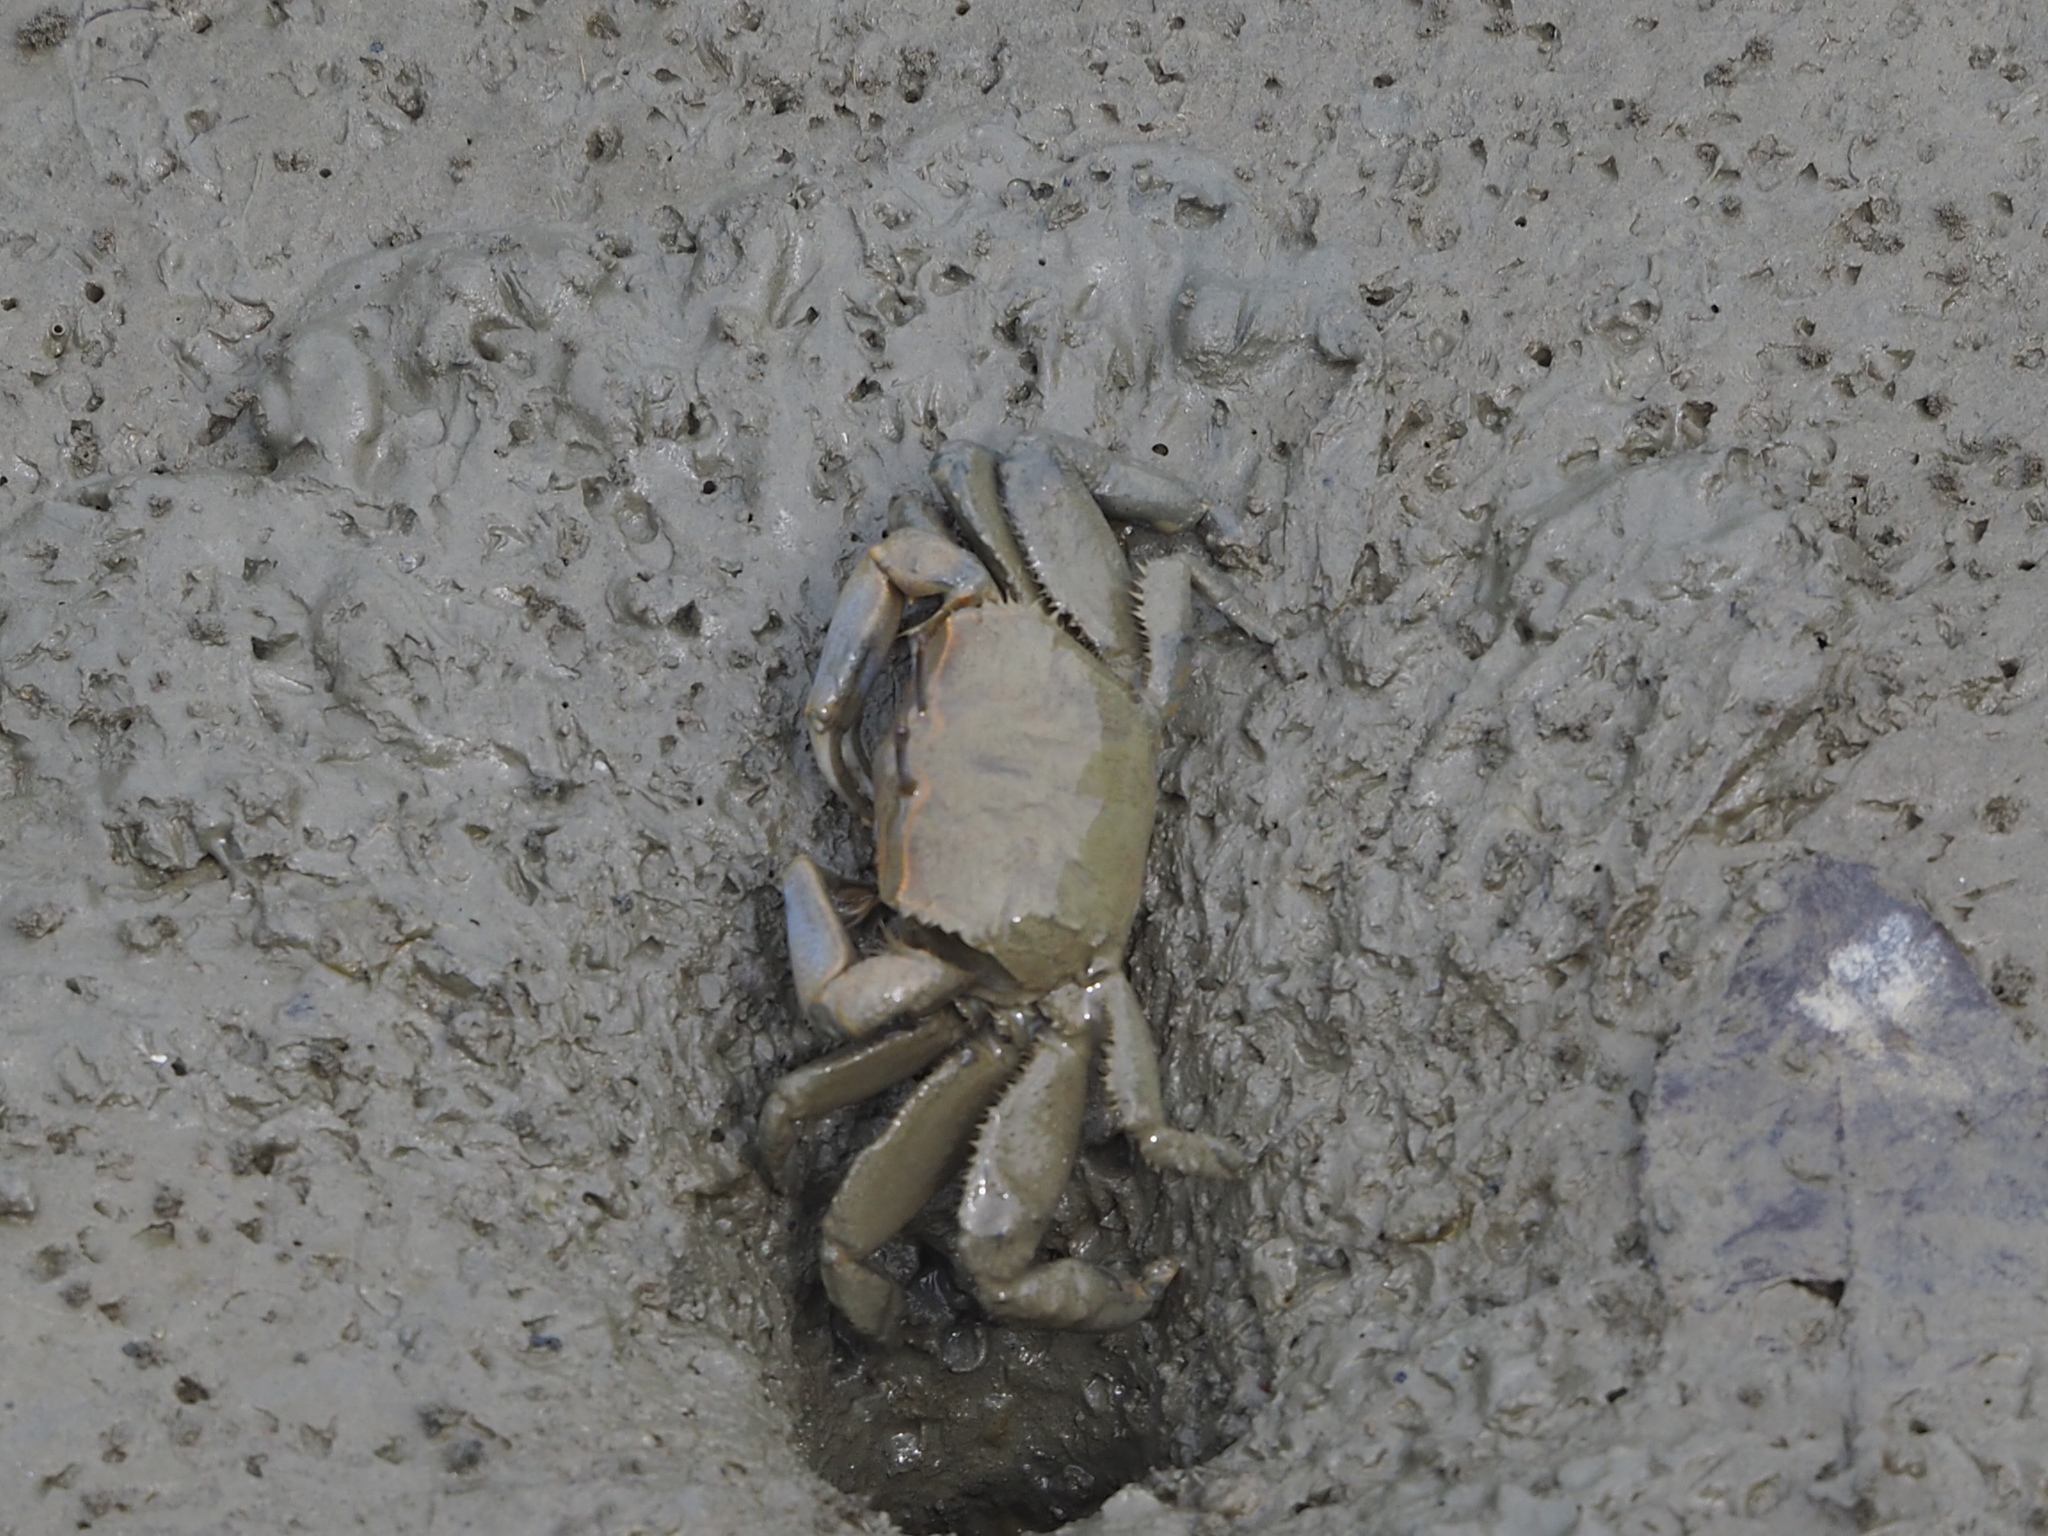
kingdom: Animalia
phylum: Arthropoda
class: Malacostraca
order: Decapoda
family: Macrophthalmidae
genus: Macrophthalmus
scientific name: Macrophthalmus tomentosus
